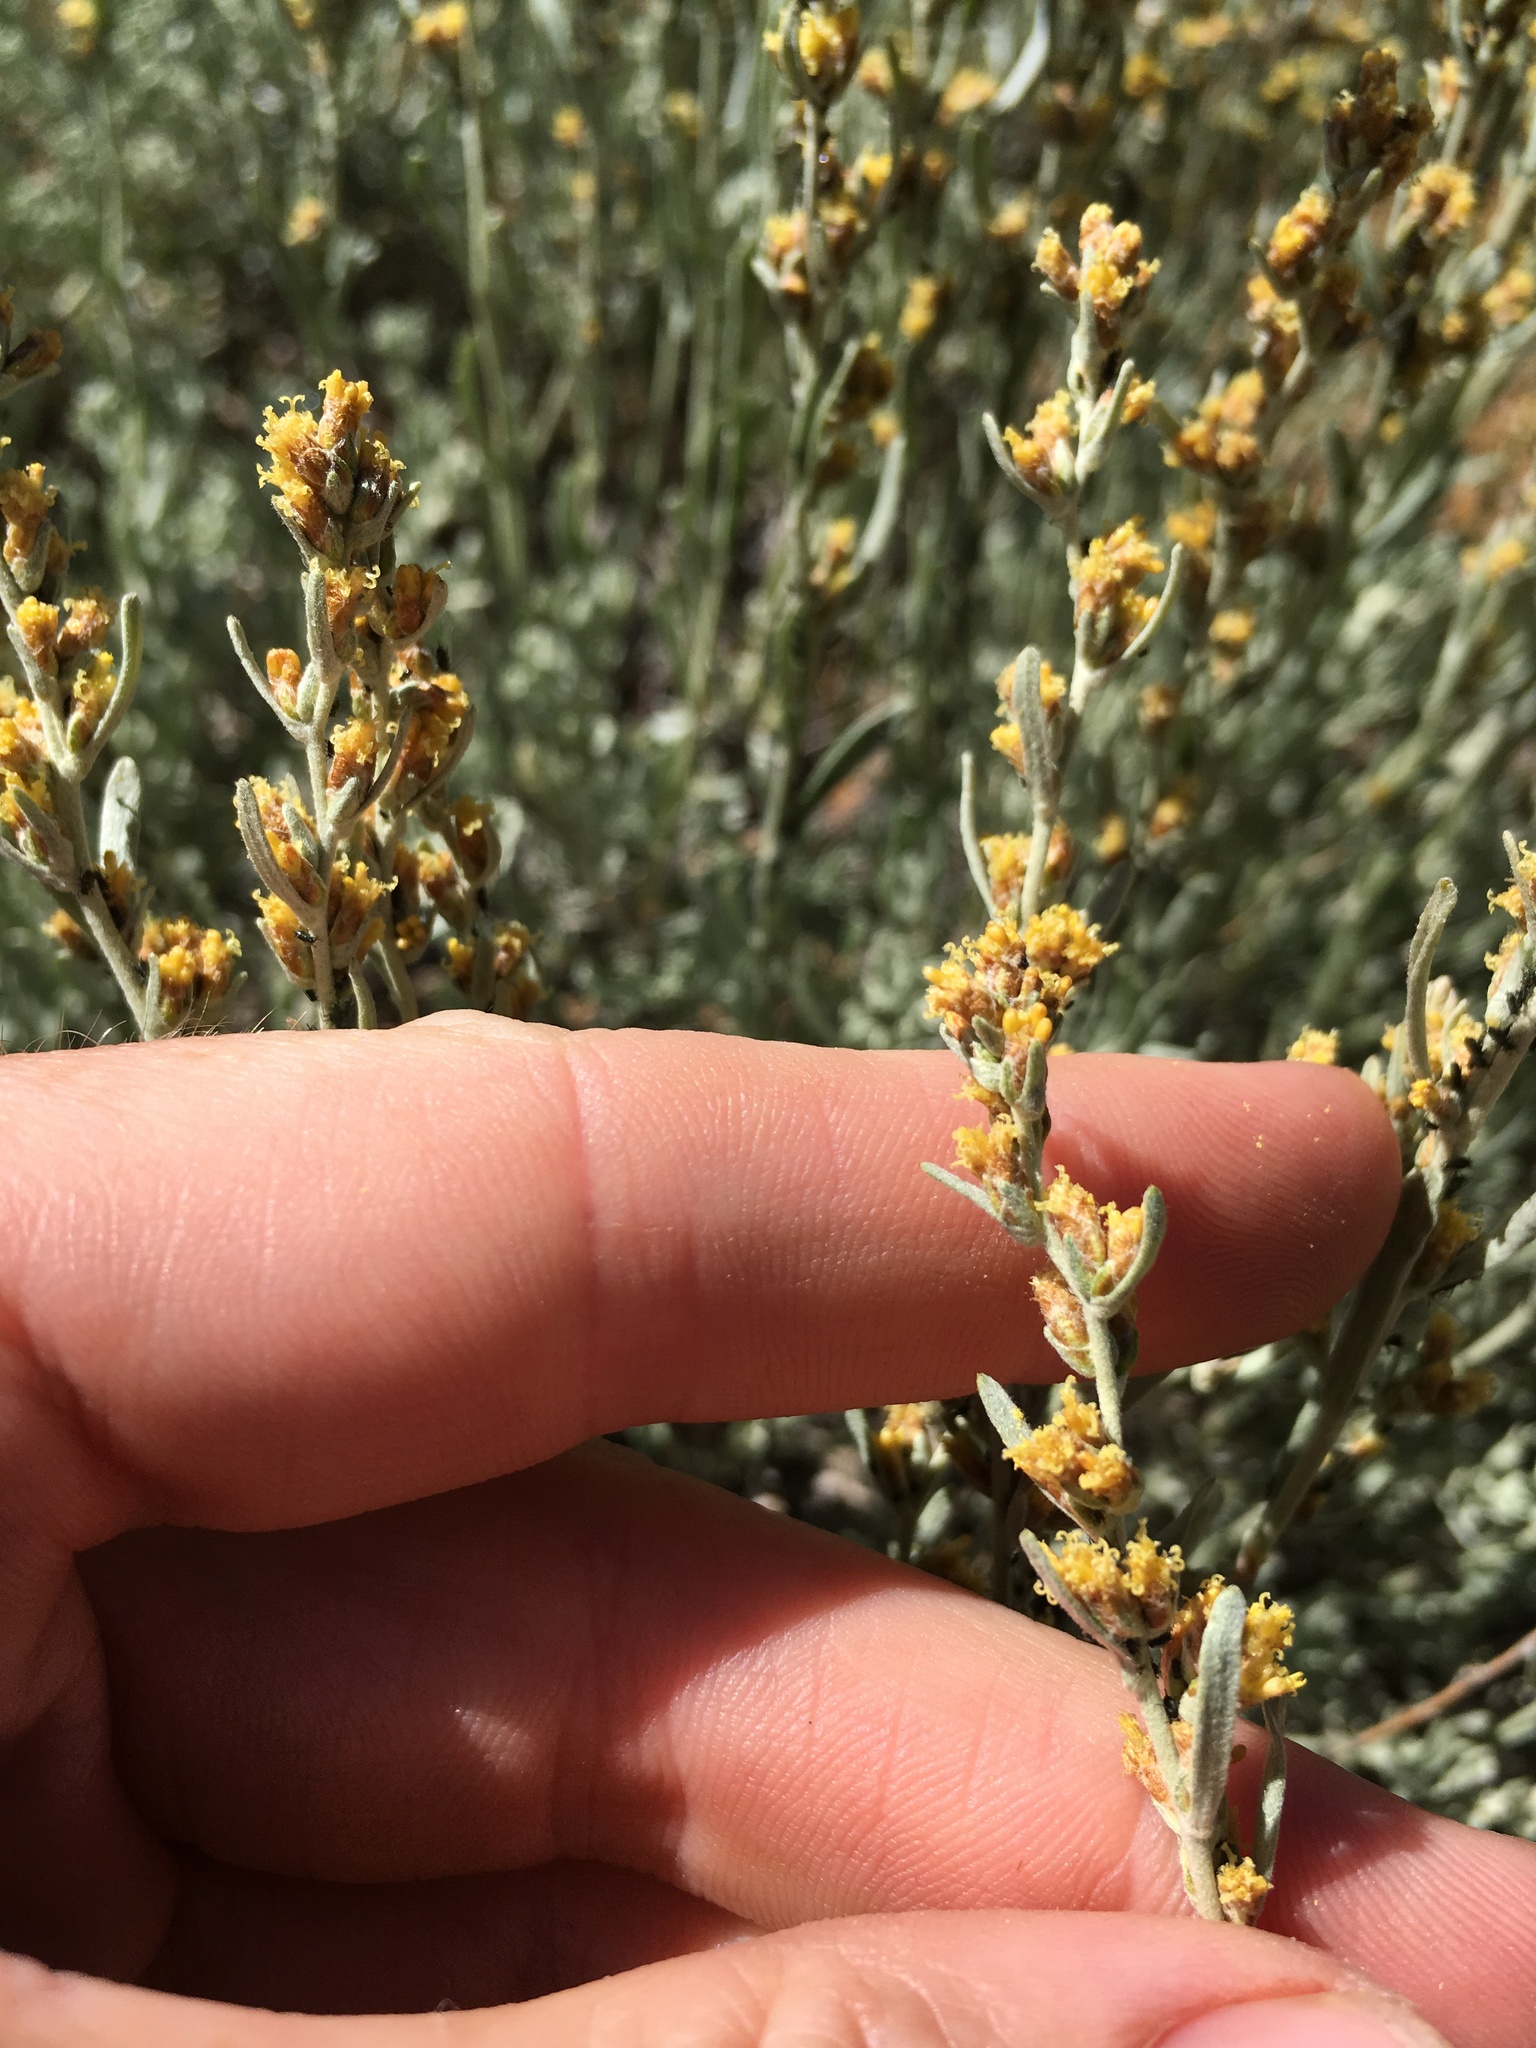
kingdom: Plantae
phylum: Tracheophyta
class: Magnoliopsida
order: Asterales
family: Asteraceae
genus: Artemisia
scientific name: Artemisia rothrockii
